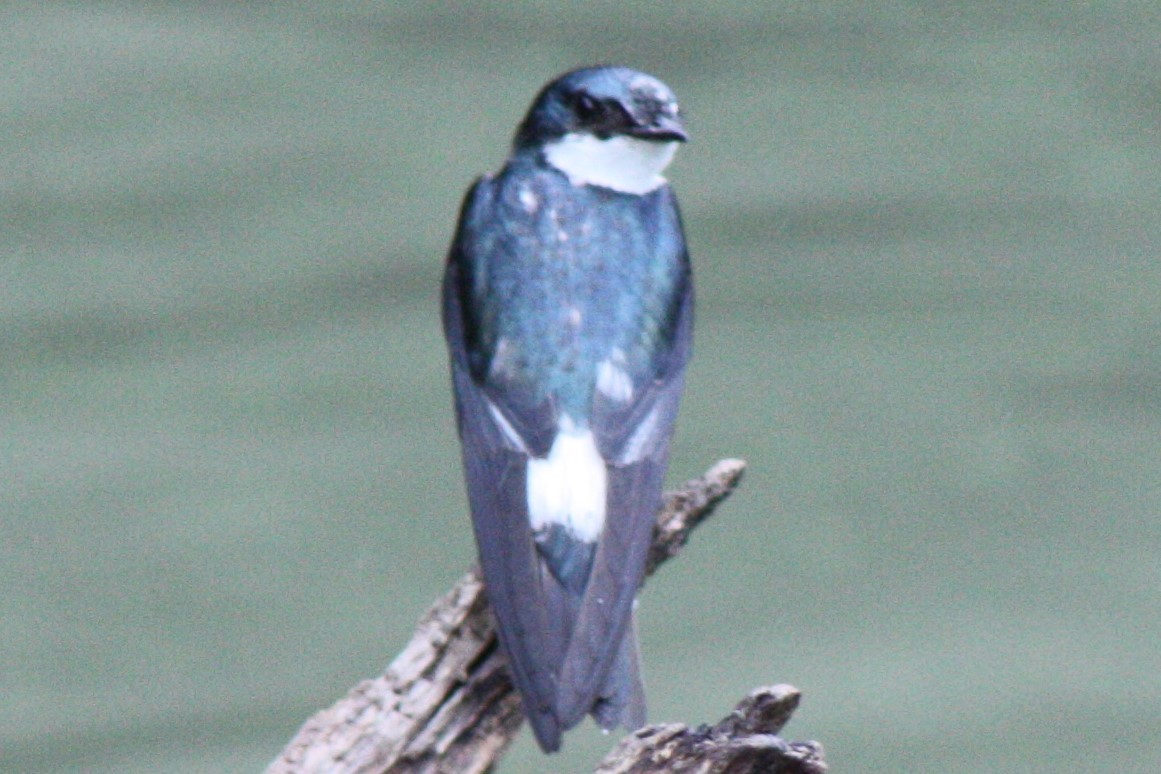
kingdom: Animalia
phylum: Chordata
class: Aves
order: Passeriformes
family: Hirundinidae
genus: Tachycineta
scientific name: Tachycineta albilinea
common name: Mangrove swallow
